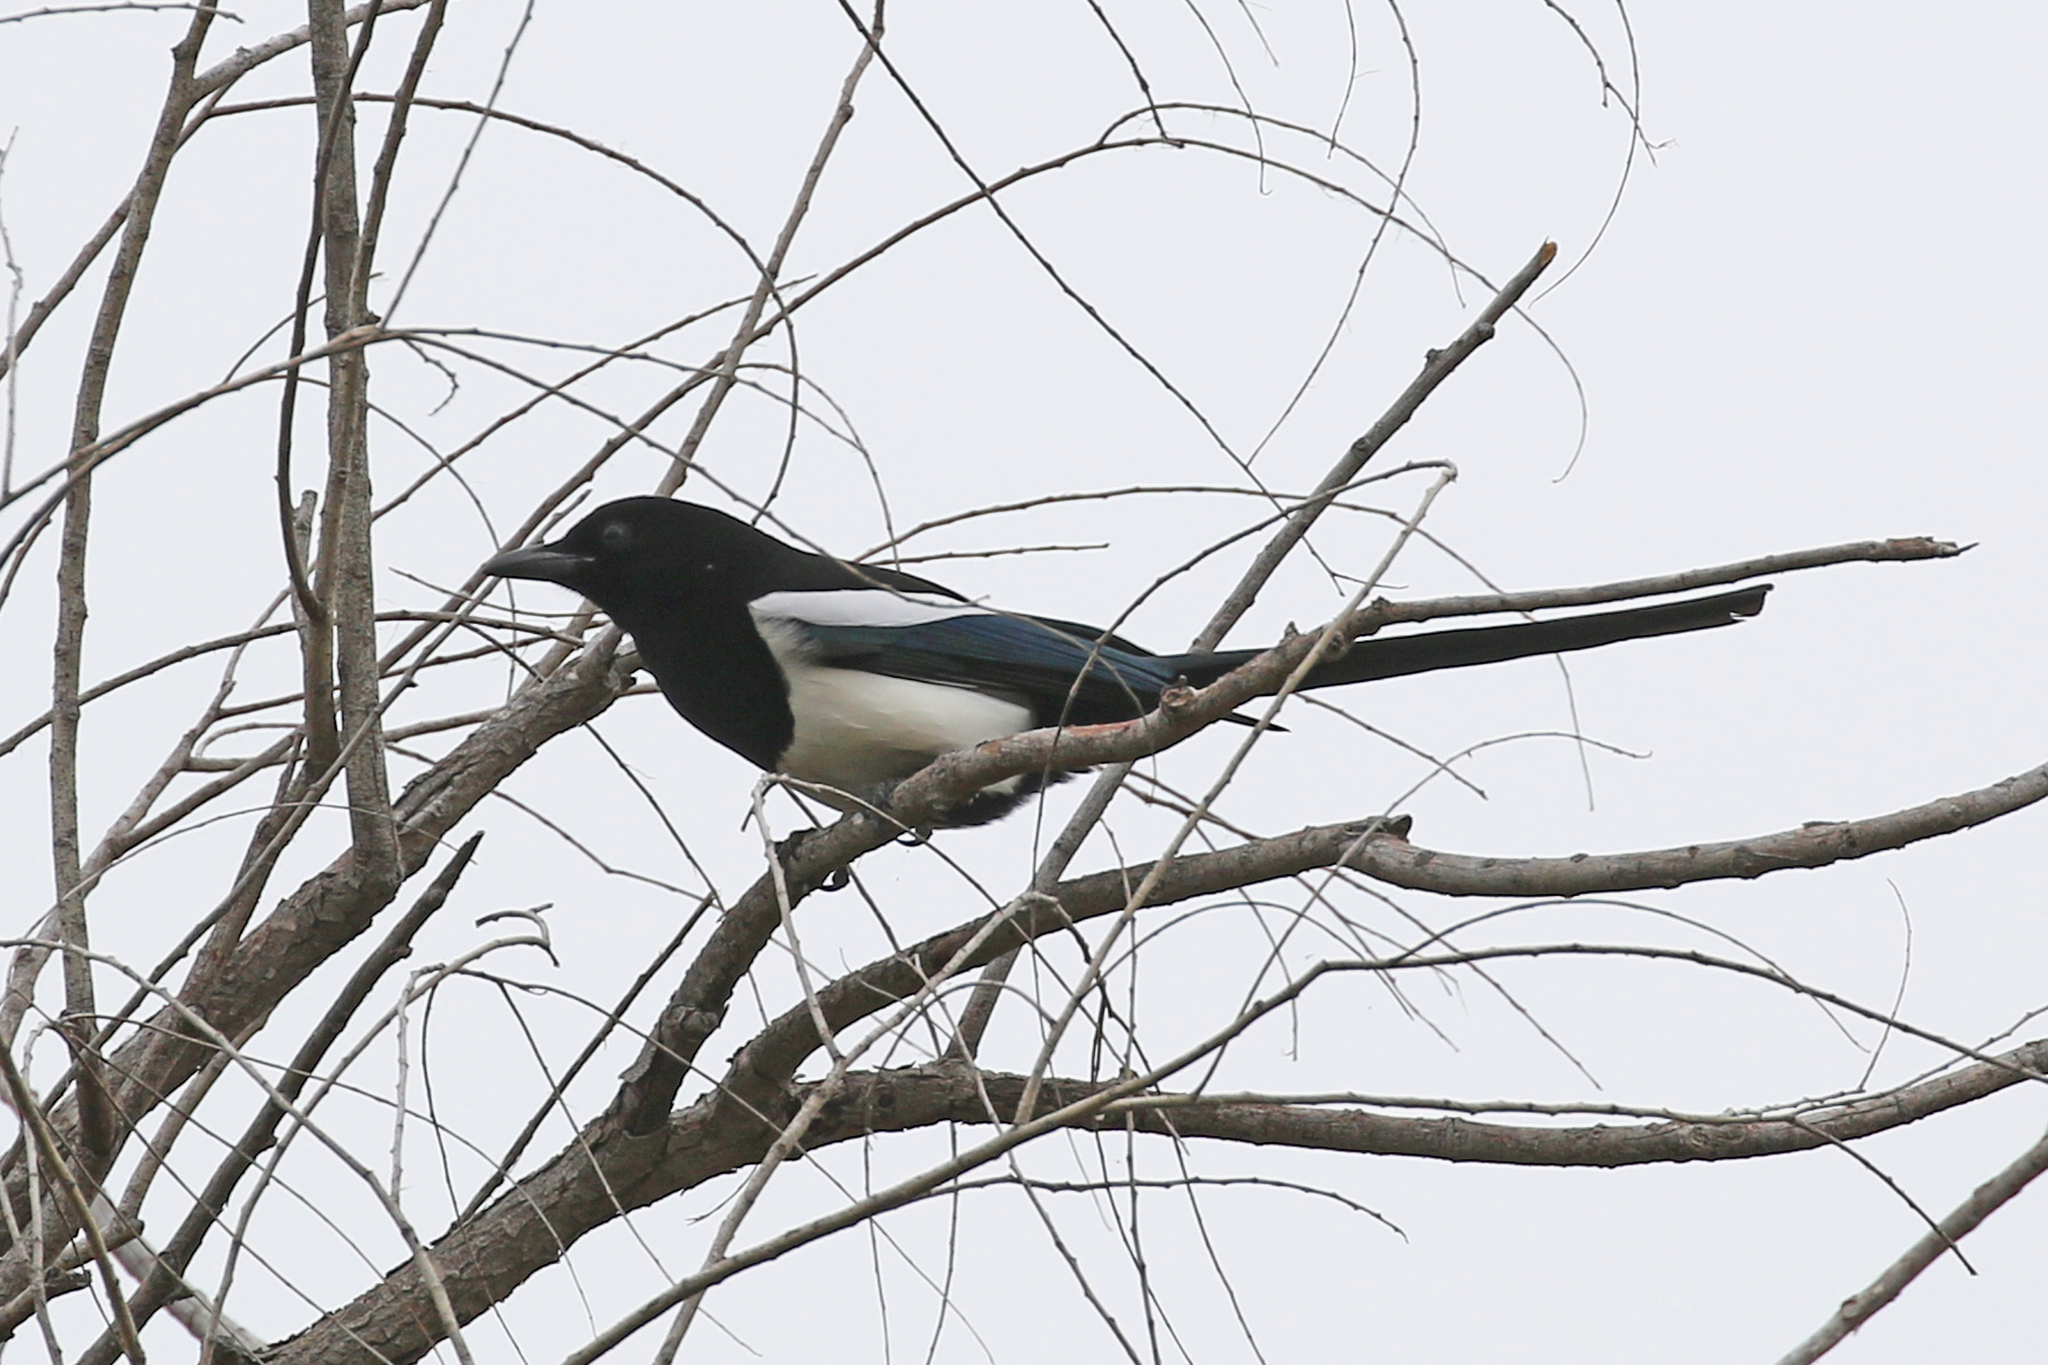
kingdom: Animalia
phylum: Chordata
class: Aves
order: Passeriformes
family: Corvidae
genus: Pica
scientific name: Pica hudsonia
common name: Black-billed magpie
